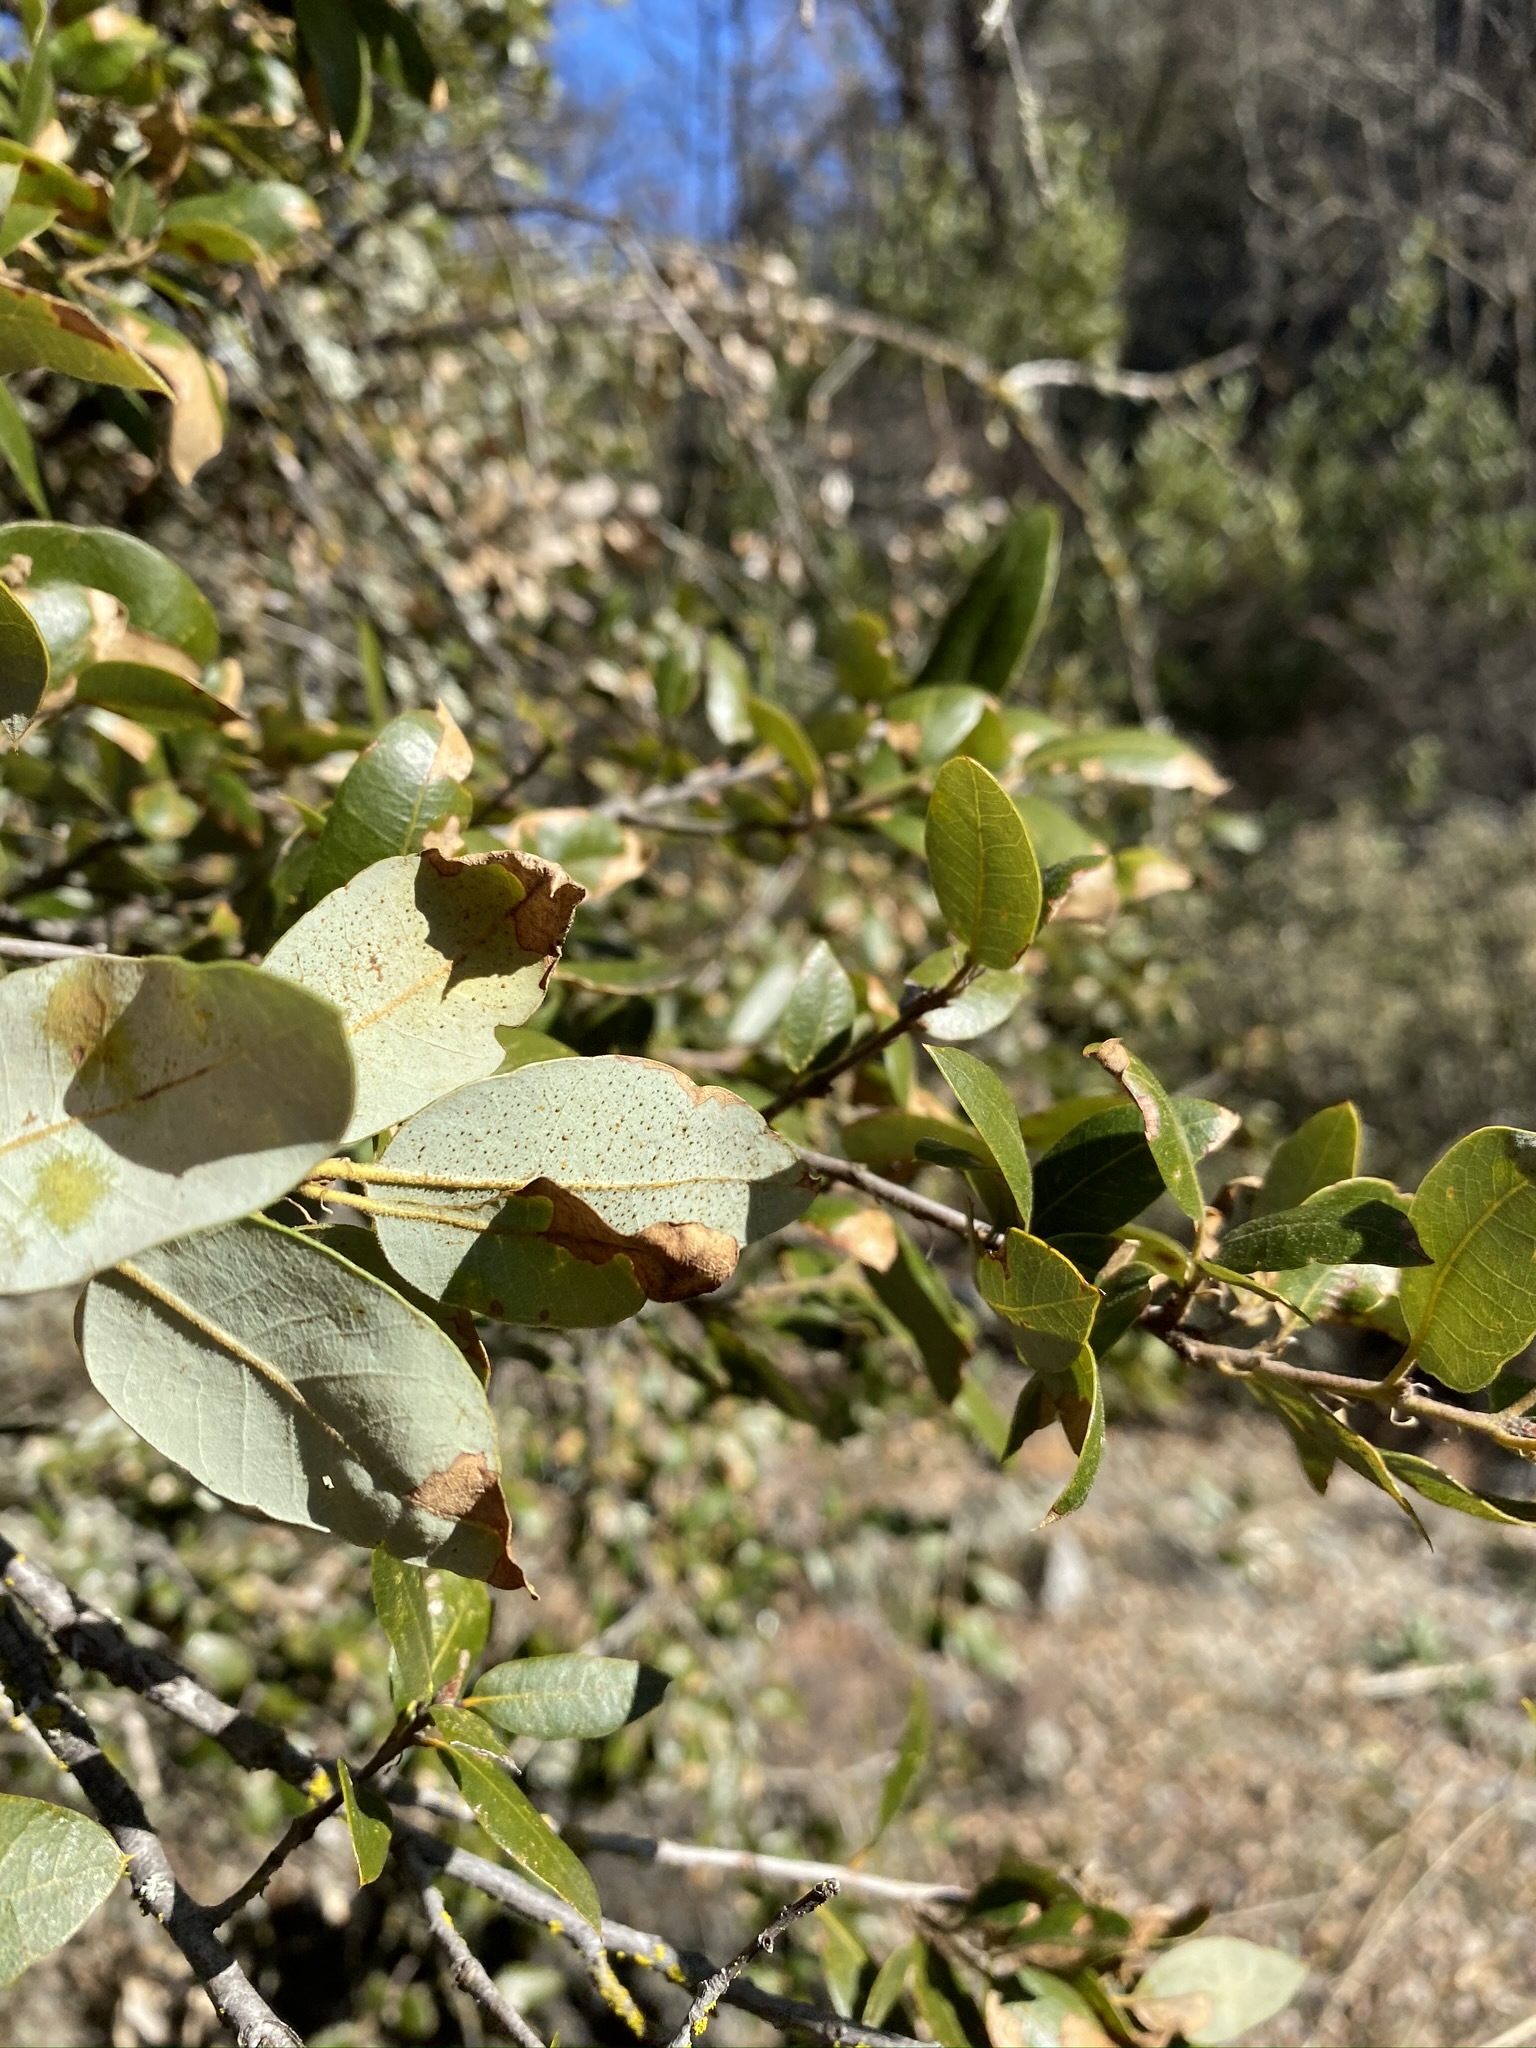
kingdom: Plantae
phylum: Tracheophyta
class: Magnoliopsida
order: Fagales
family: Fagaceae
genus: Quercus
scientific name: Quercus chrysolepis
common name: Canyon live oak
